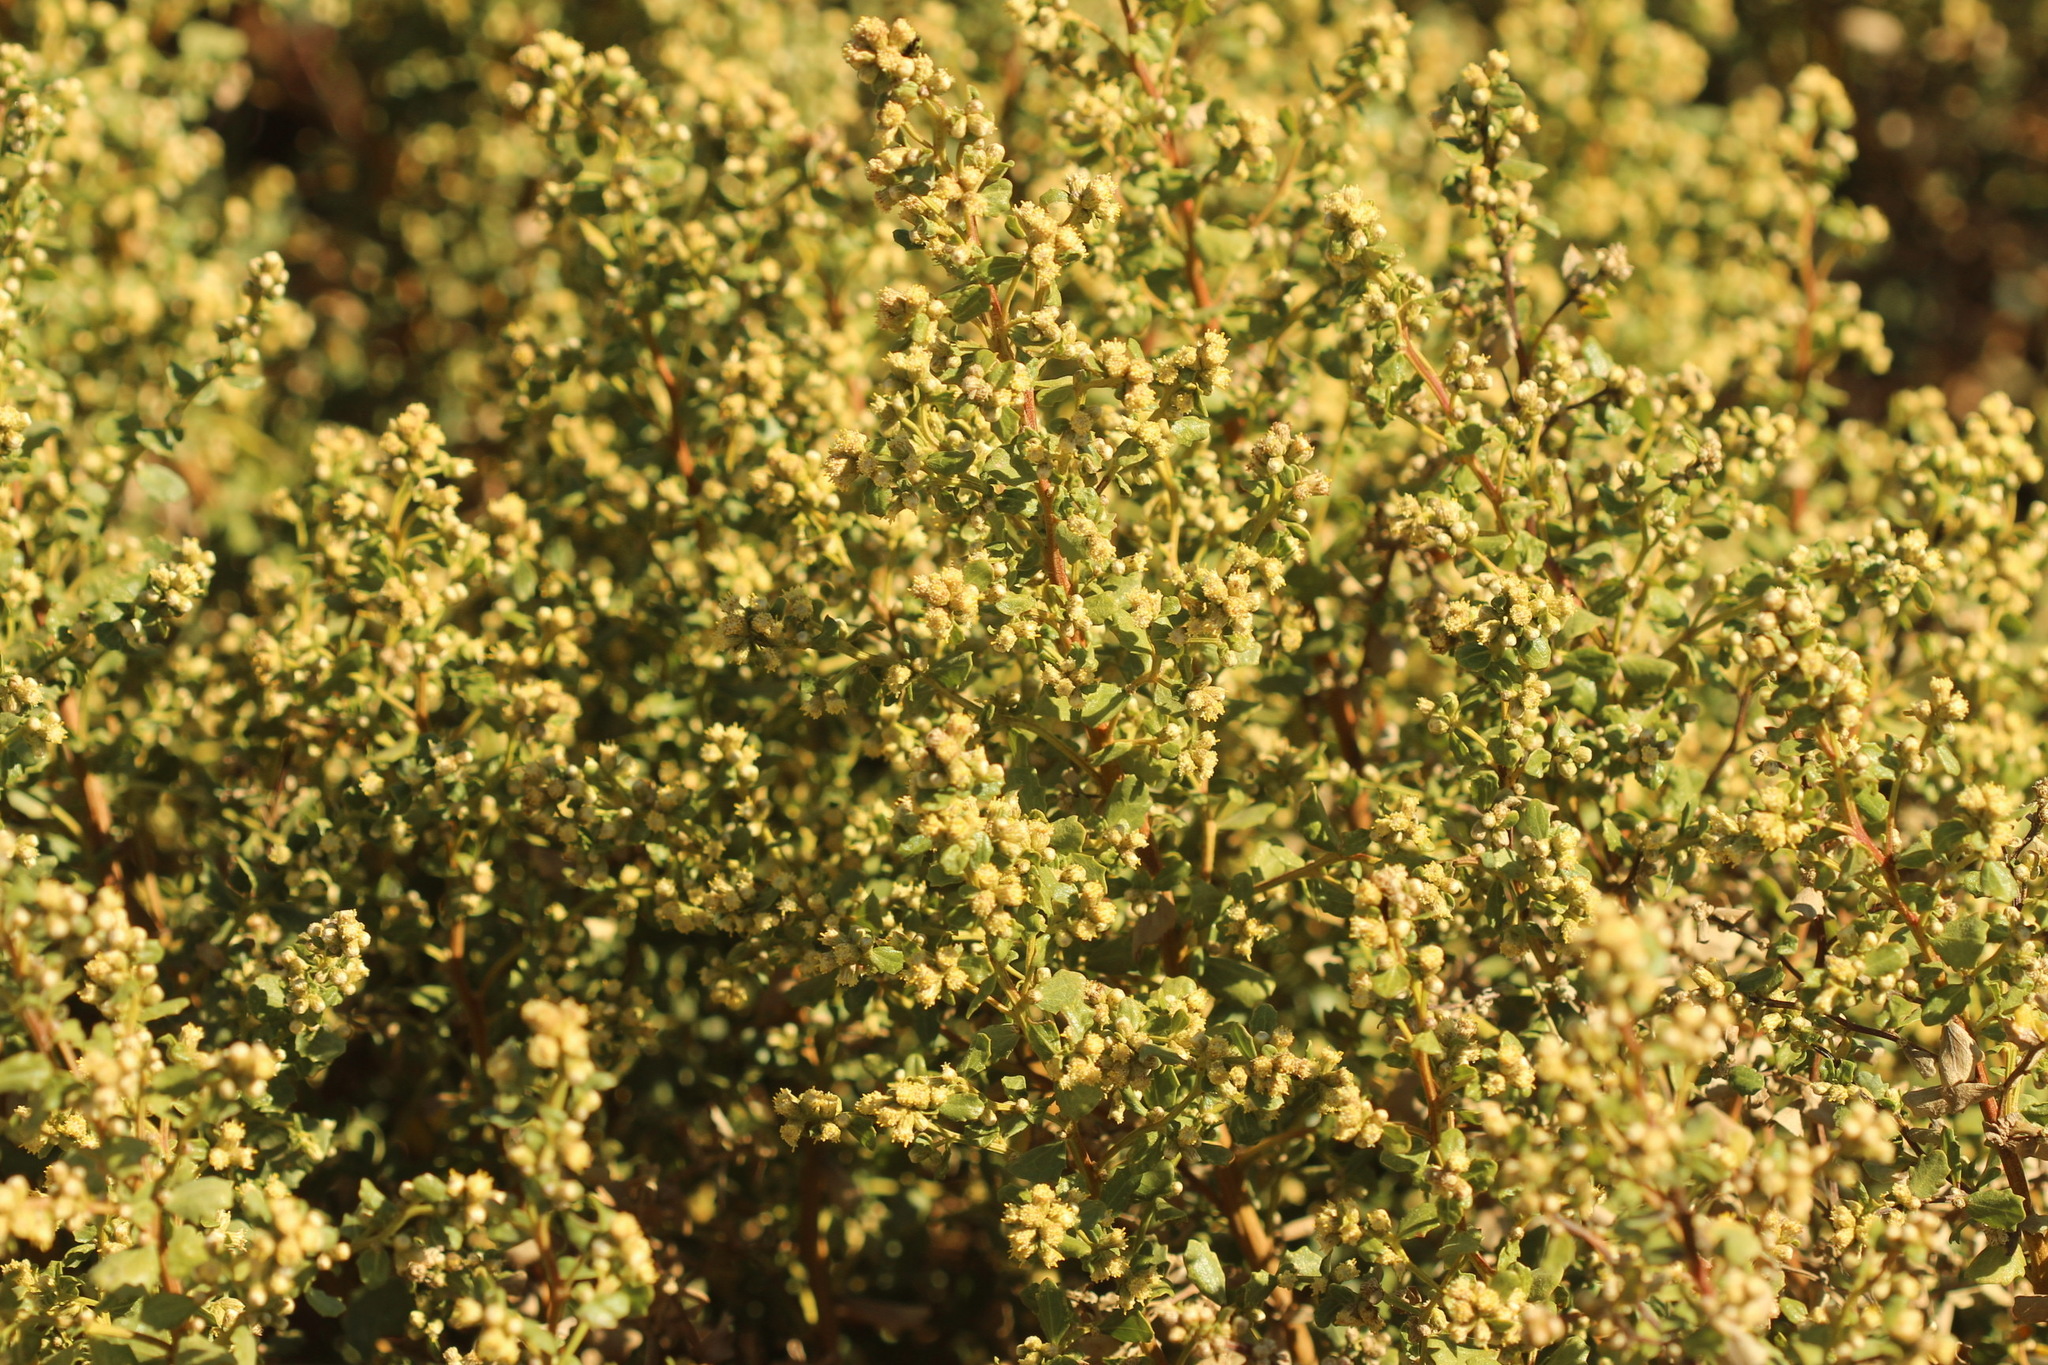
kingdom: Plantae
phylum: Tracheophyta
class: Magnoliopsida
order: Asterales
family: Asteraceae
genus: Baccharis
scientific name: Baccharis pilularis
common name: Coyotebrush
